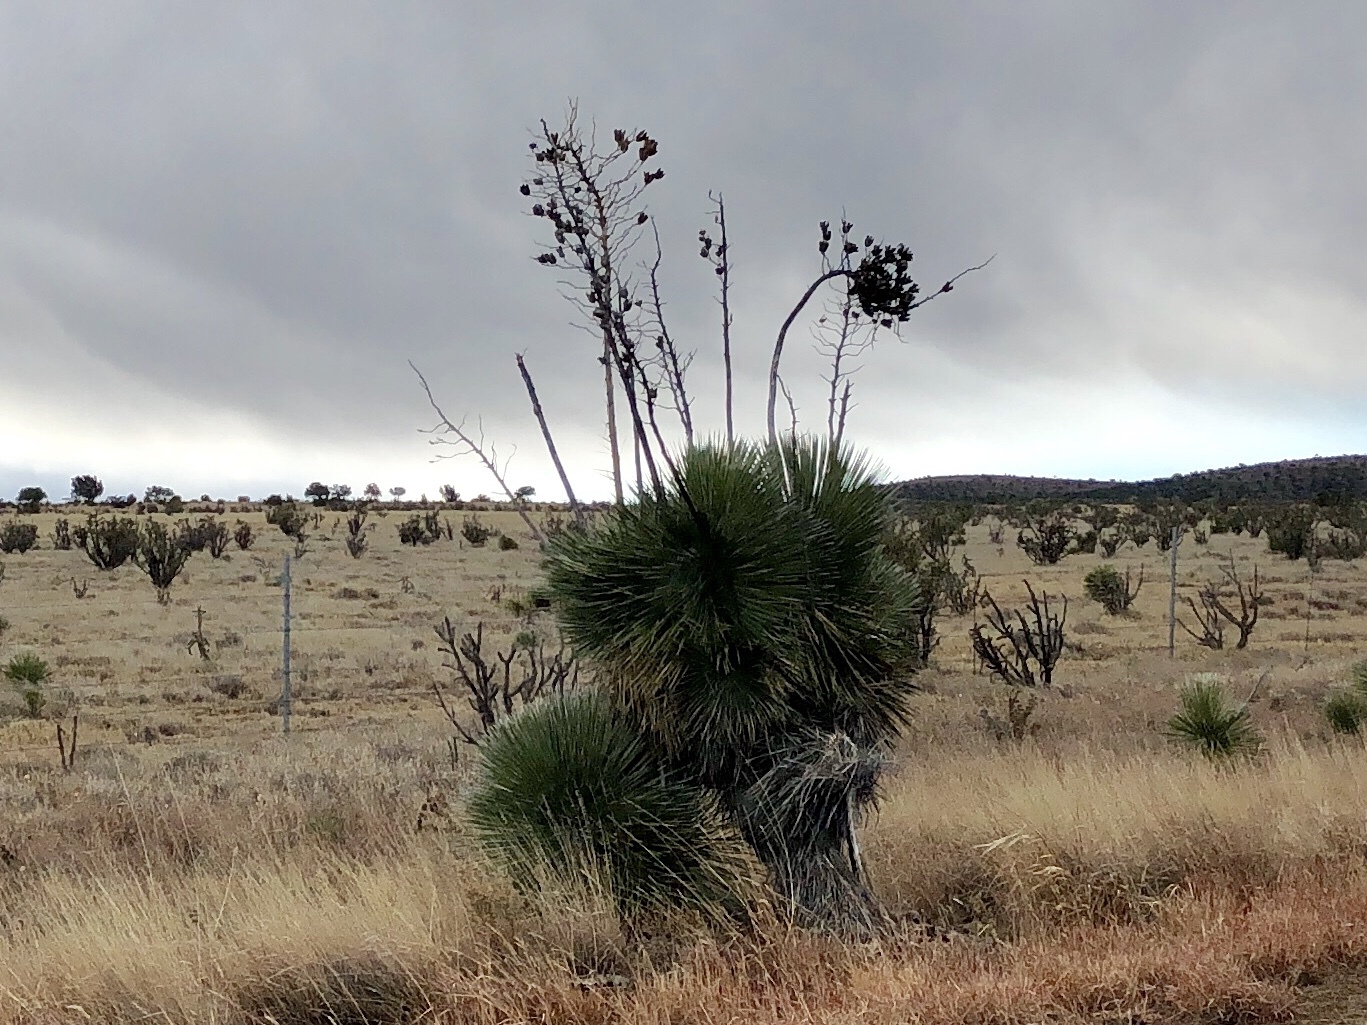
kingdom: Plantae
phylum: Tracheophyta
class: Liliopsida
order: Asparagales
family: Asparagaceae
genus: Yucca
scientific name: Yucca elata
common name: Palmella
